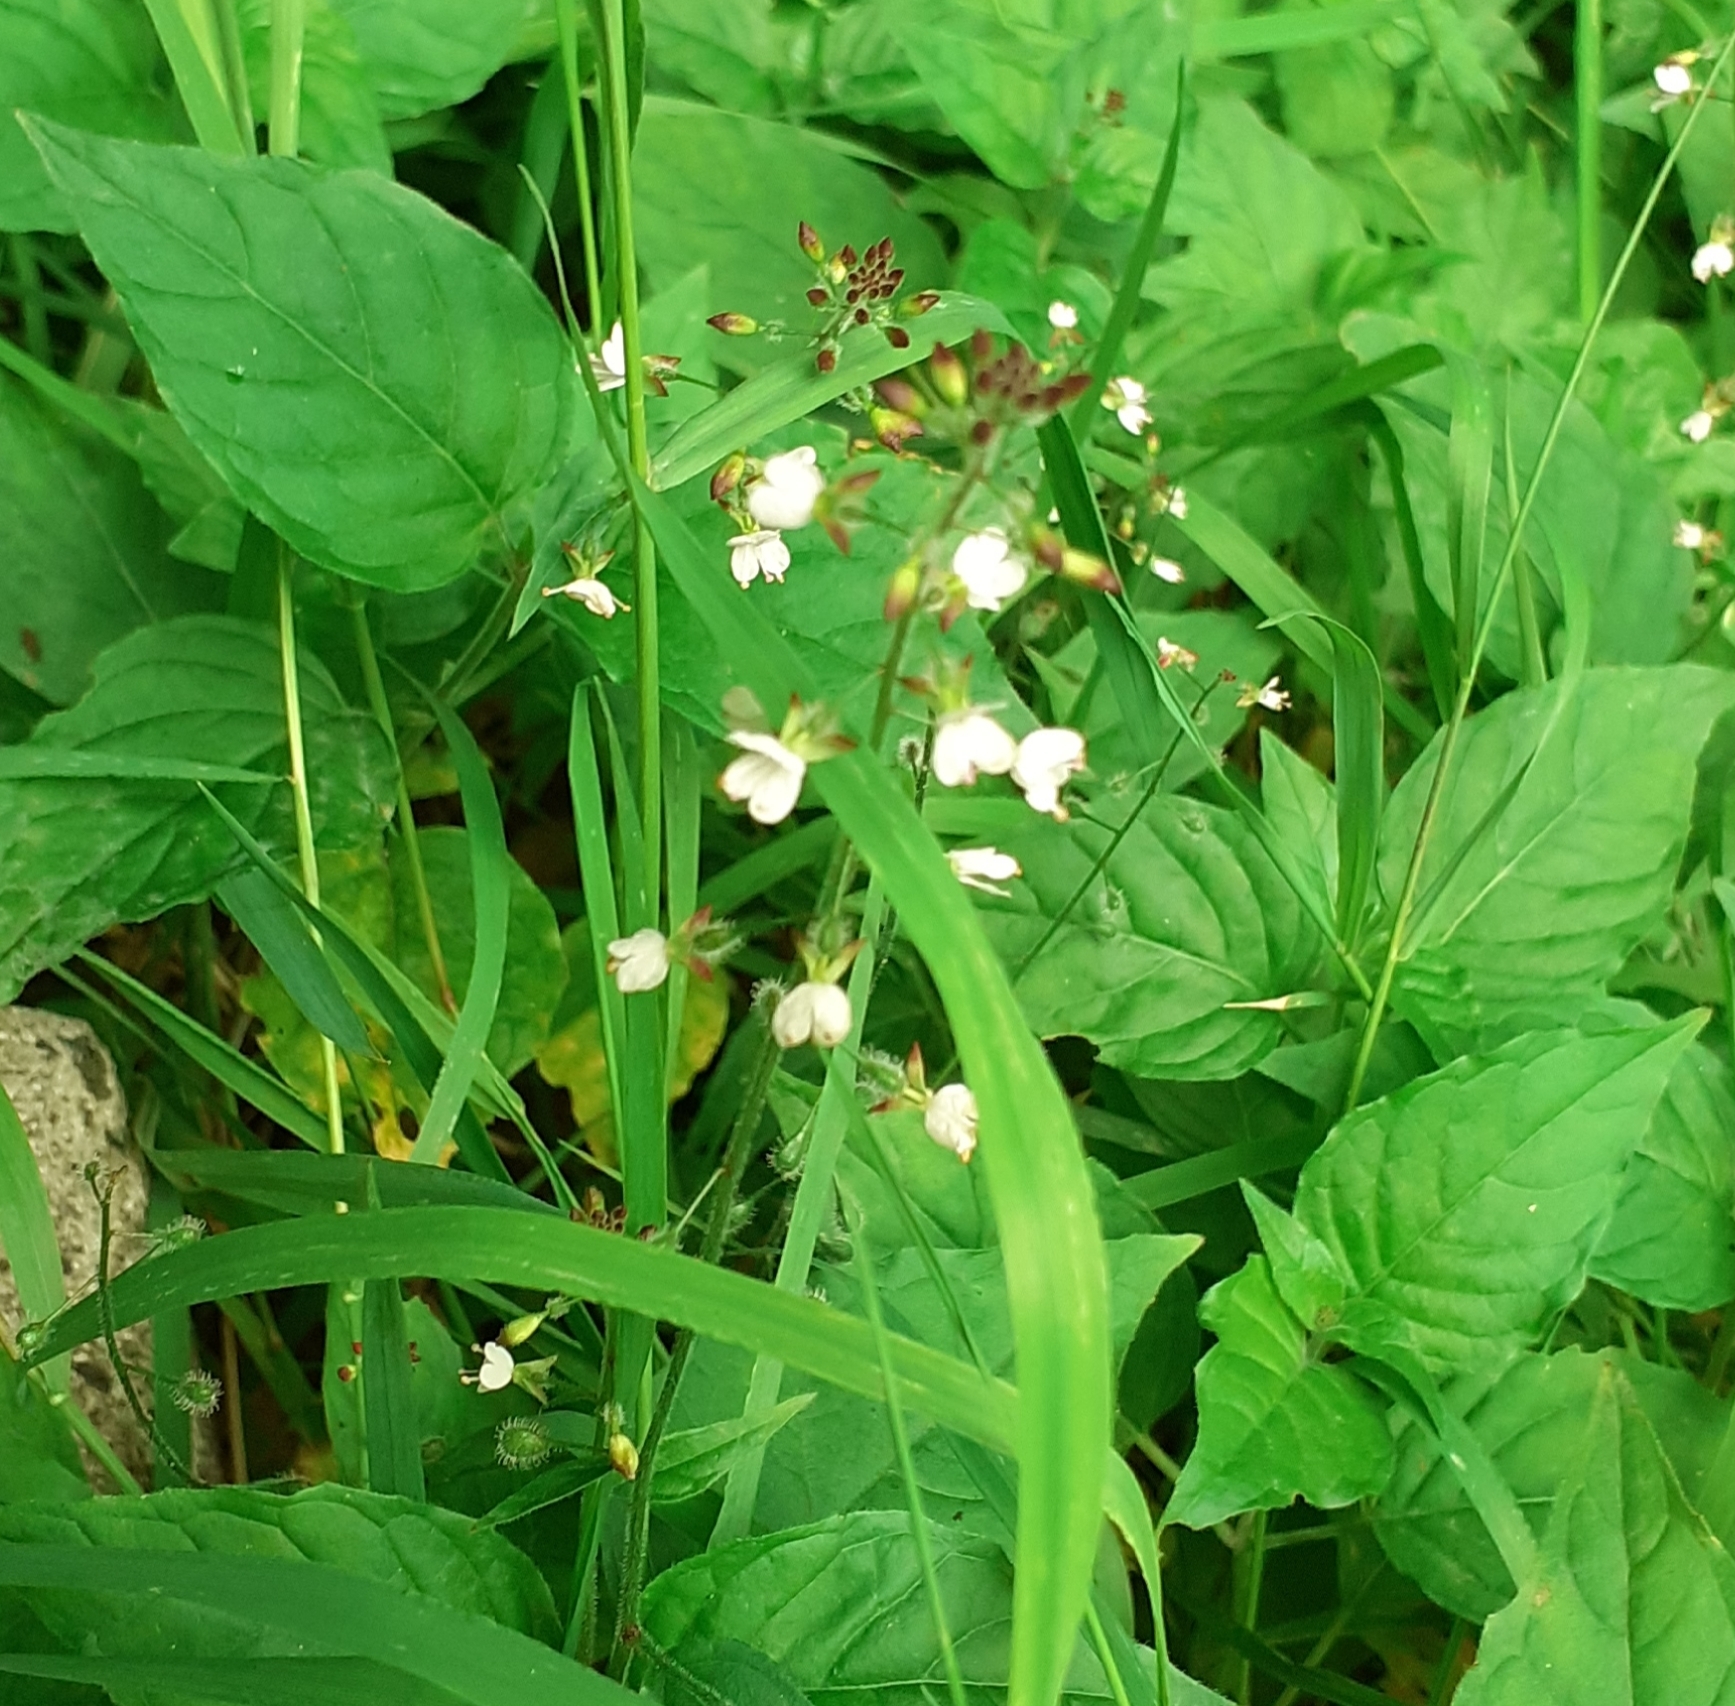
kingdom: Plantae
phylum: Tracheophyta
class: Magnoliopsida
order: Myrtales
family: Onagraceae
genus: Circaea
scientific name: Circaea lutetiana
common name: Enchanter's-nightshade
